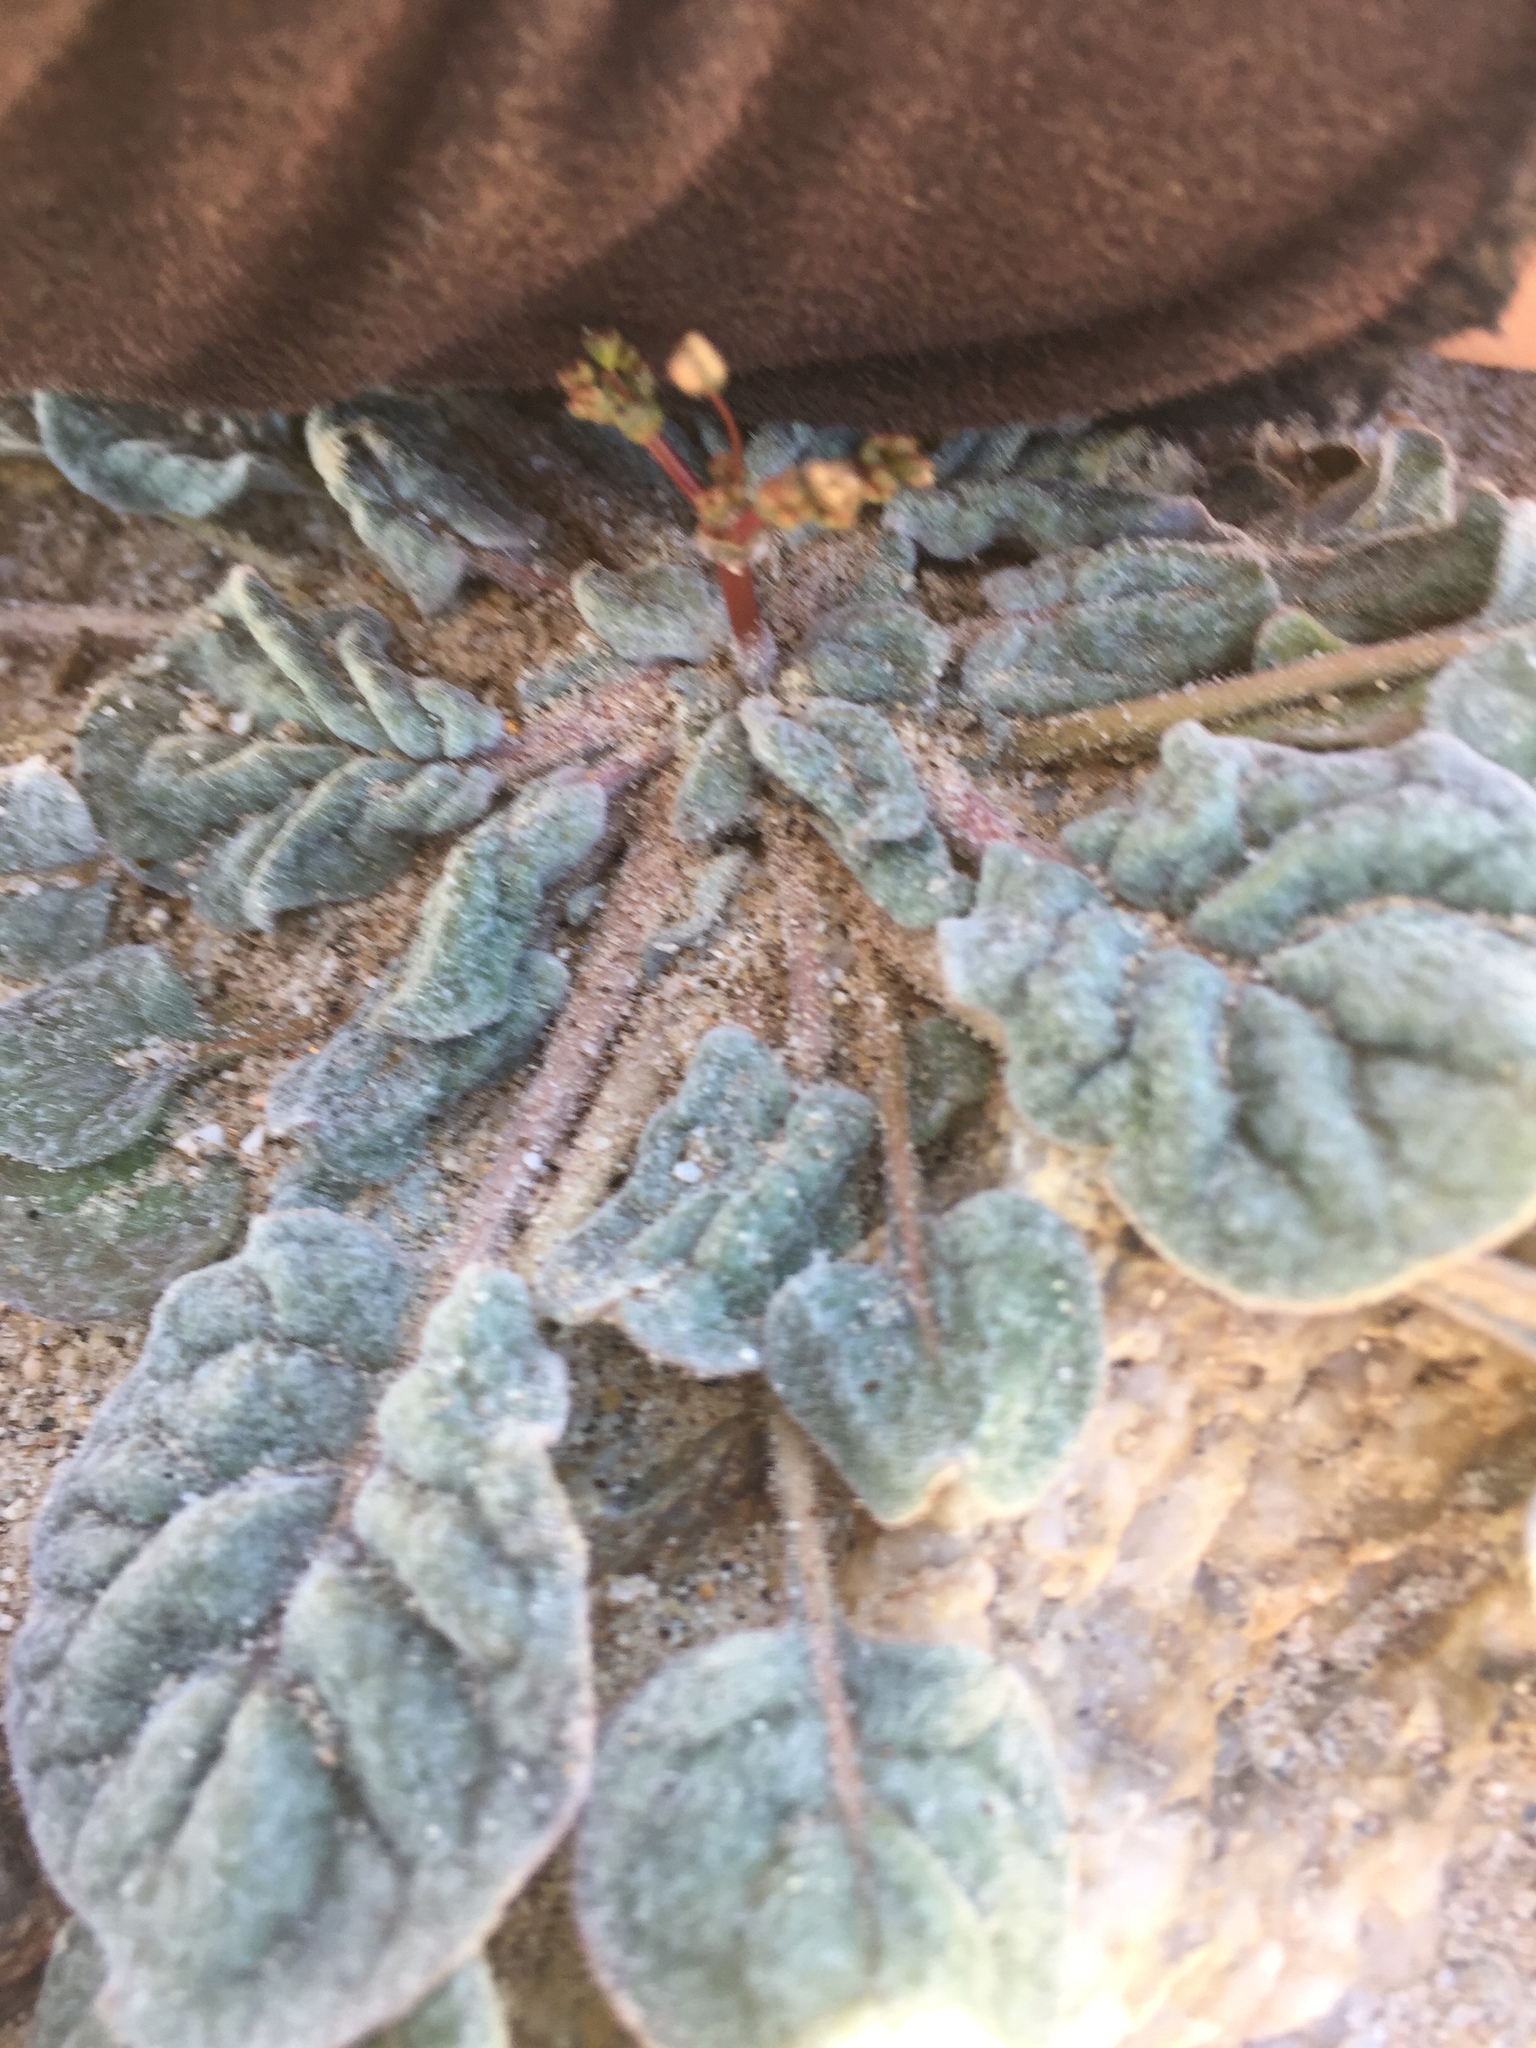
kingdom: Plantae
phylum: Tracheophyta
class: Magnoliopsida
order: Caryophyllales
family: Polygonaceae
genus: Eriogonum
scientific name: Eriogonum thomasii
